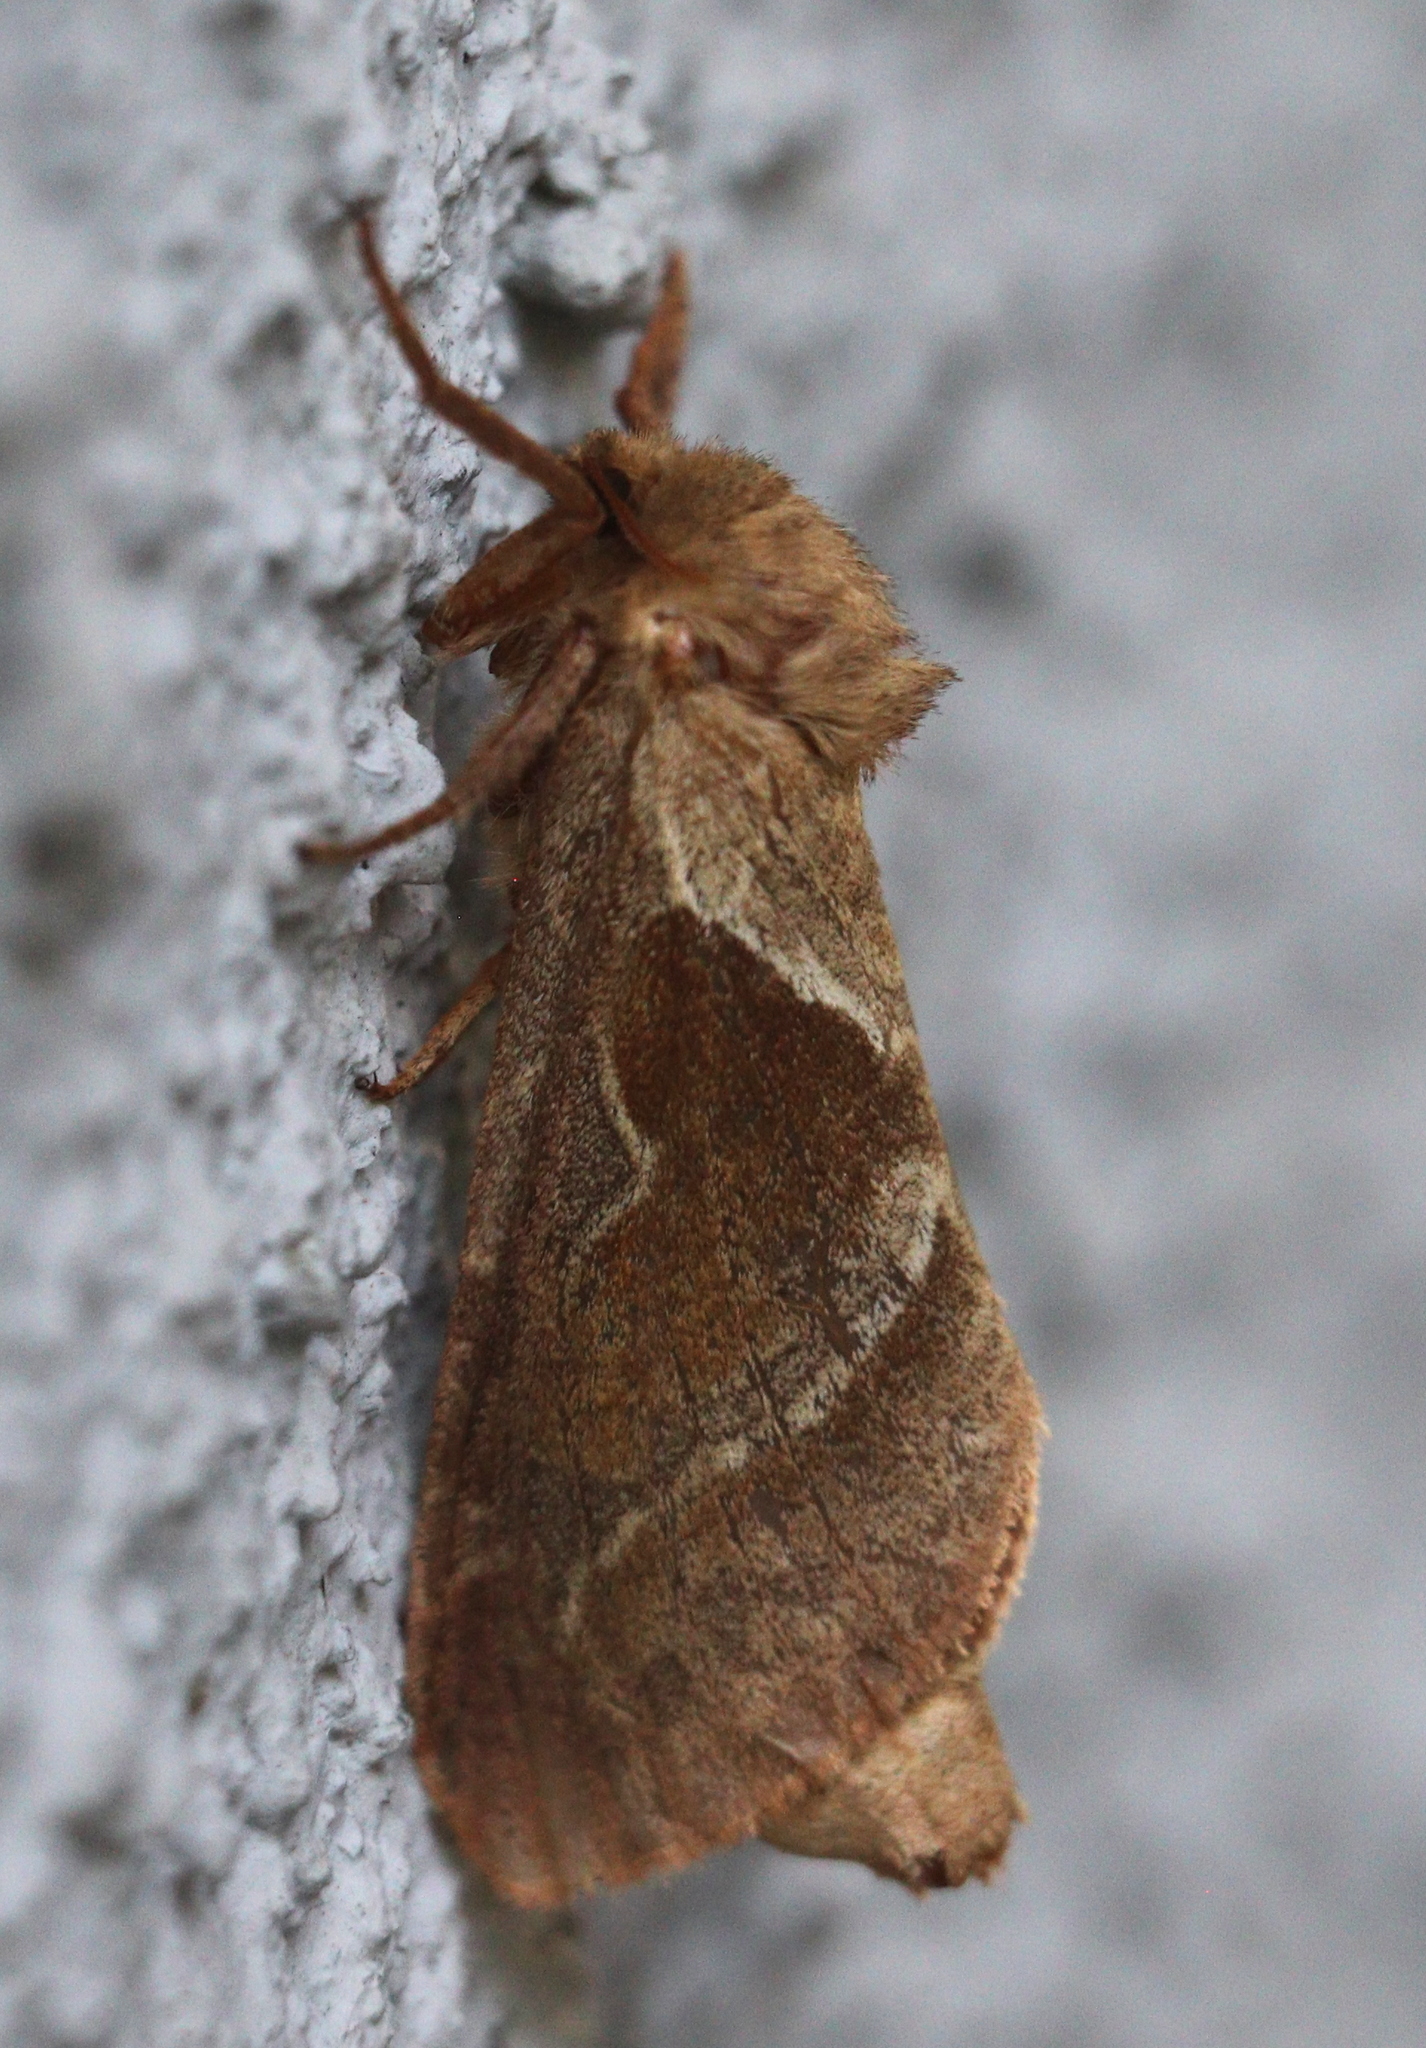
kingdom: Animalia
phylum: Arthropoda
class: Insecta
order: Lepidoptera
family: Hepialidae
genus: Triodia
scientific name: Triodia sylvina
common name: Orange swift
